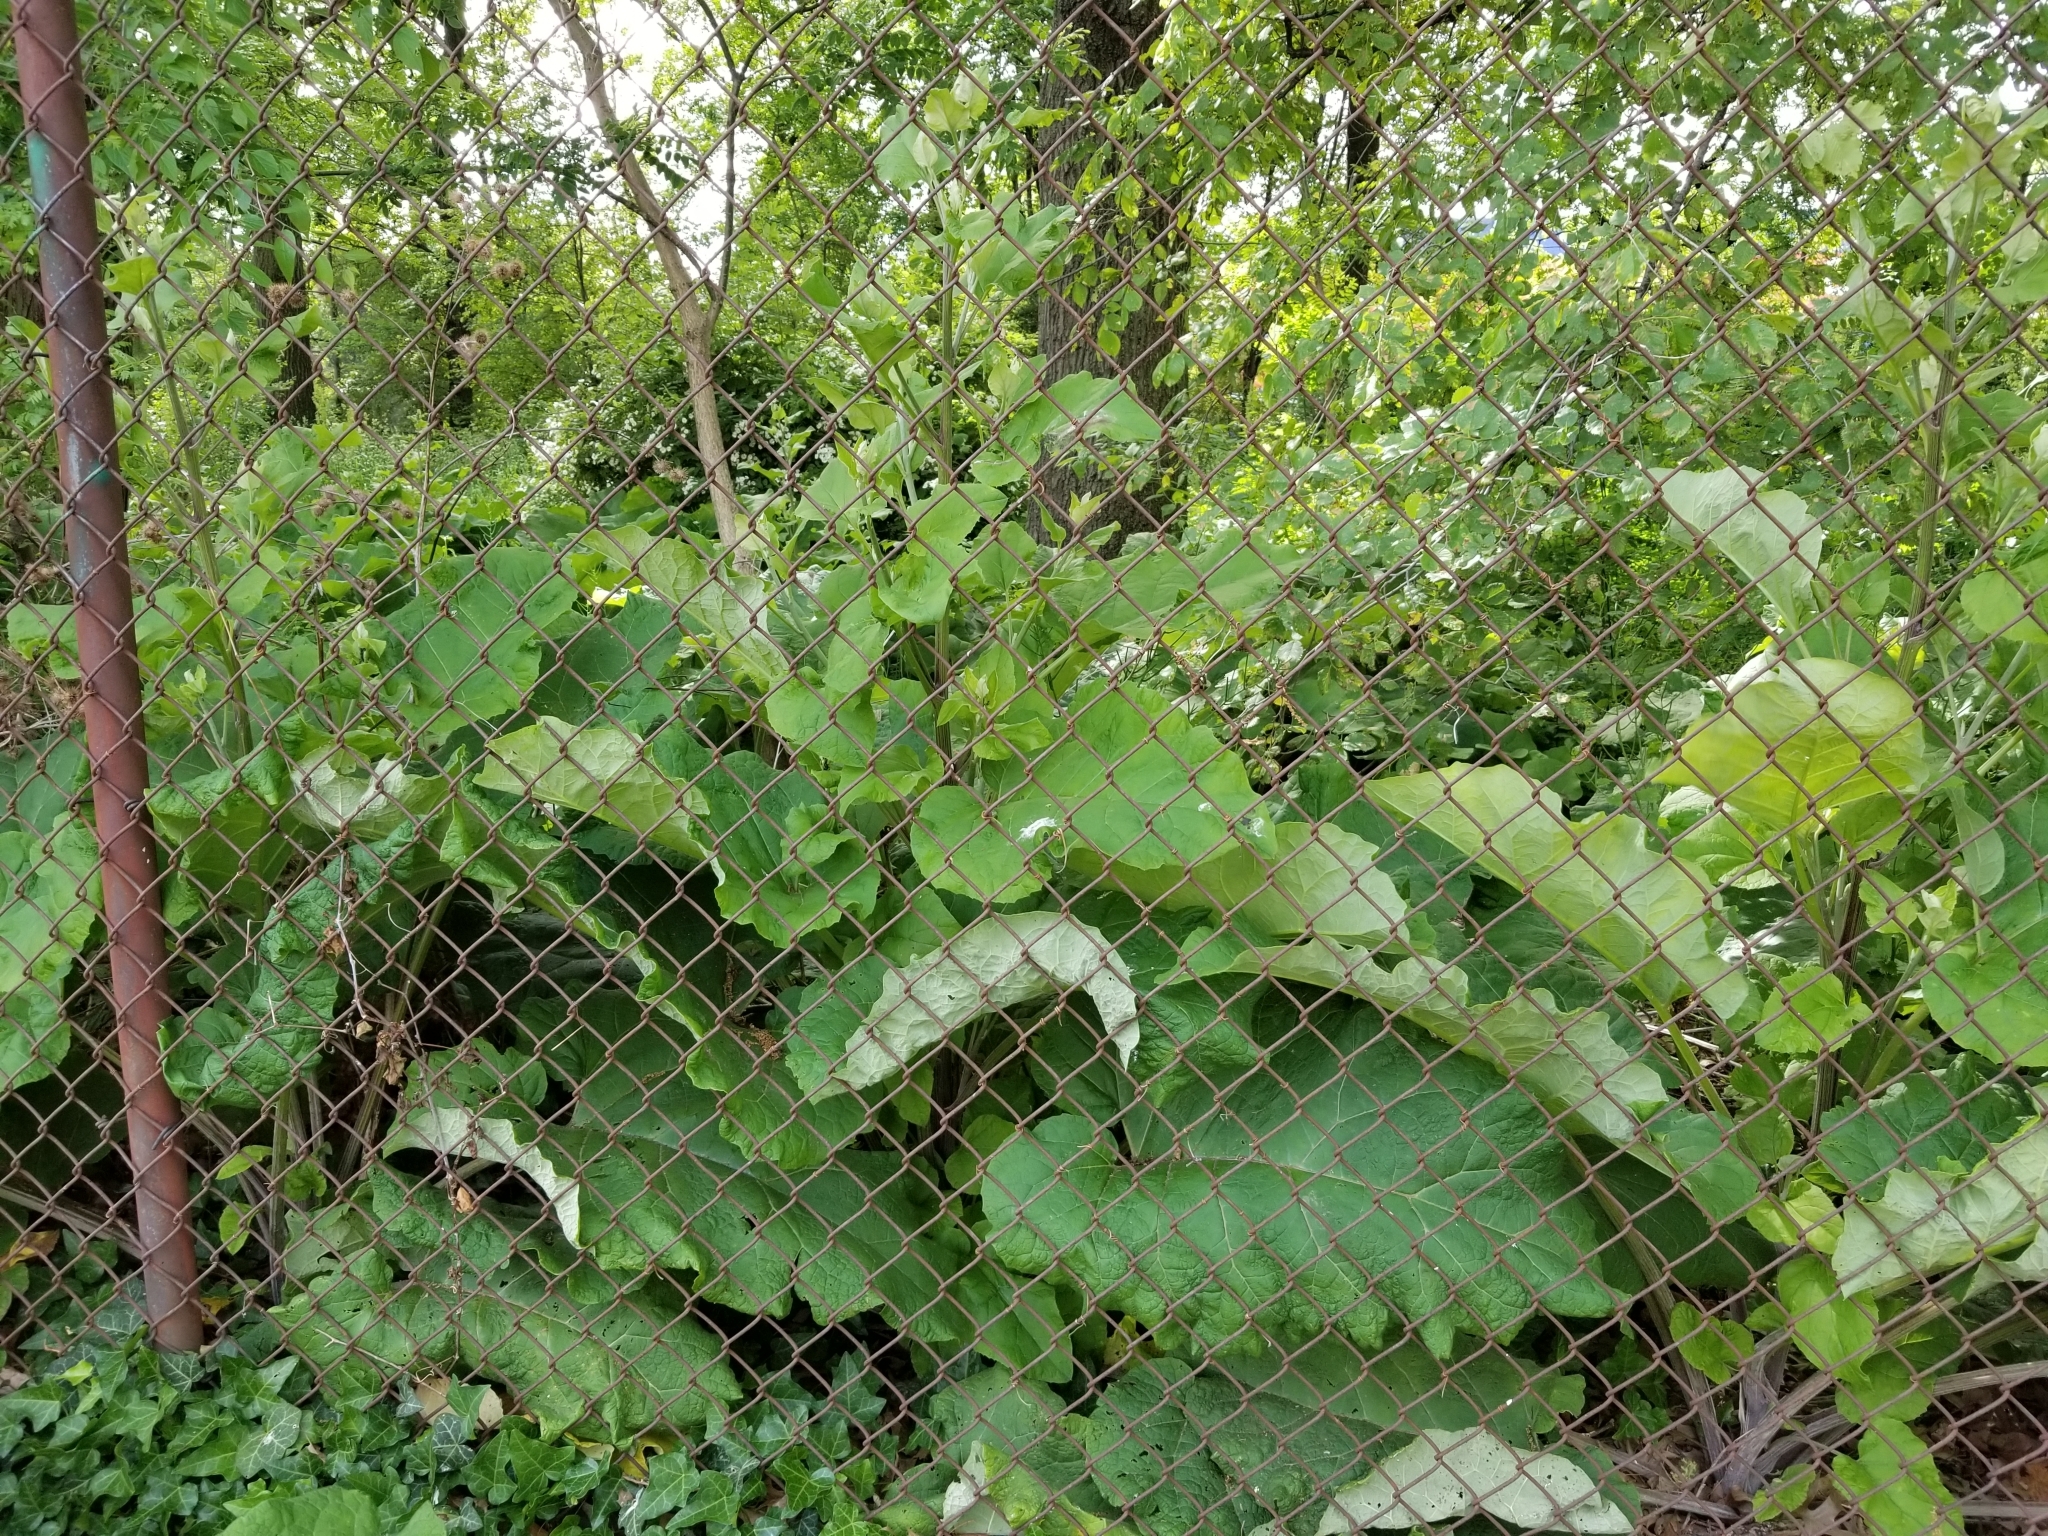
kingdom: Plantae
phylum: Tracheophyta
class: Magnoliopsida
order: Asterales
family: Asteraceae
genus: Arctium
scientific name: Arctium
